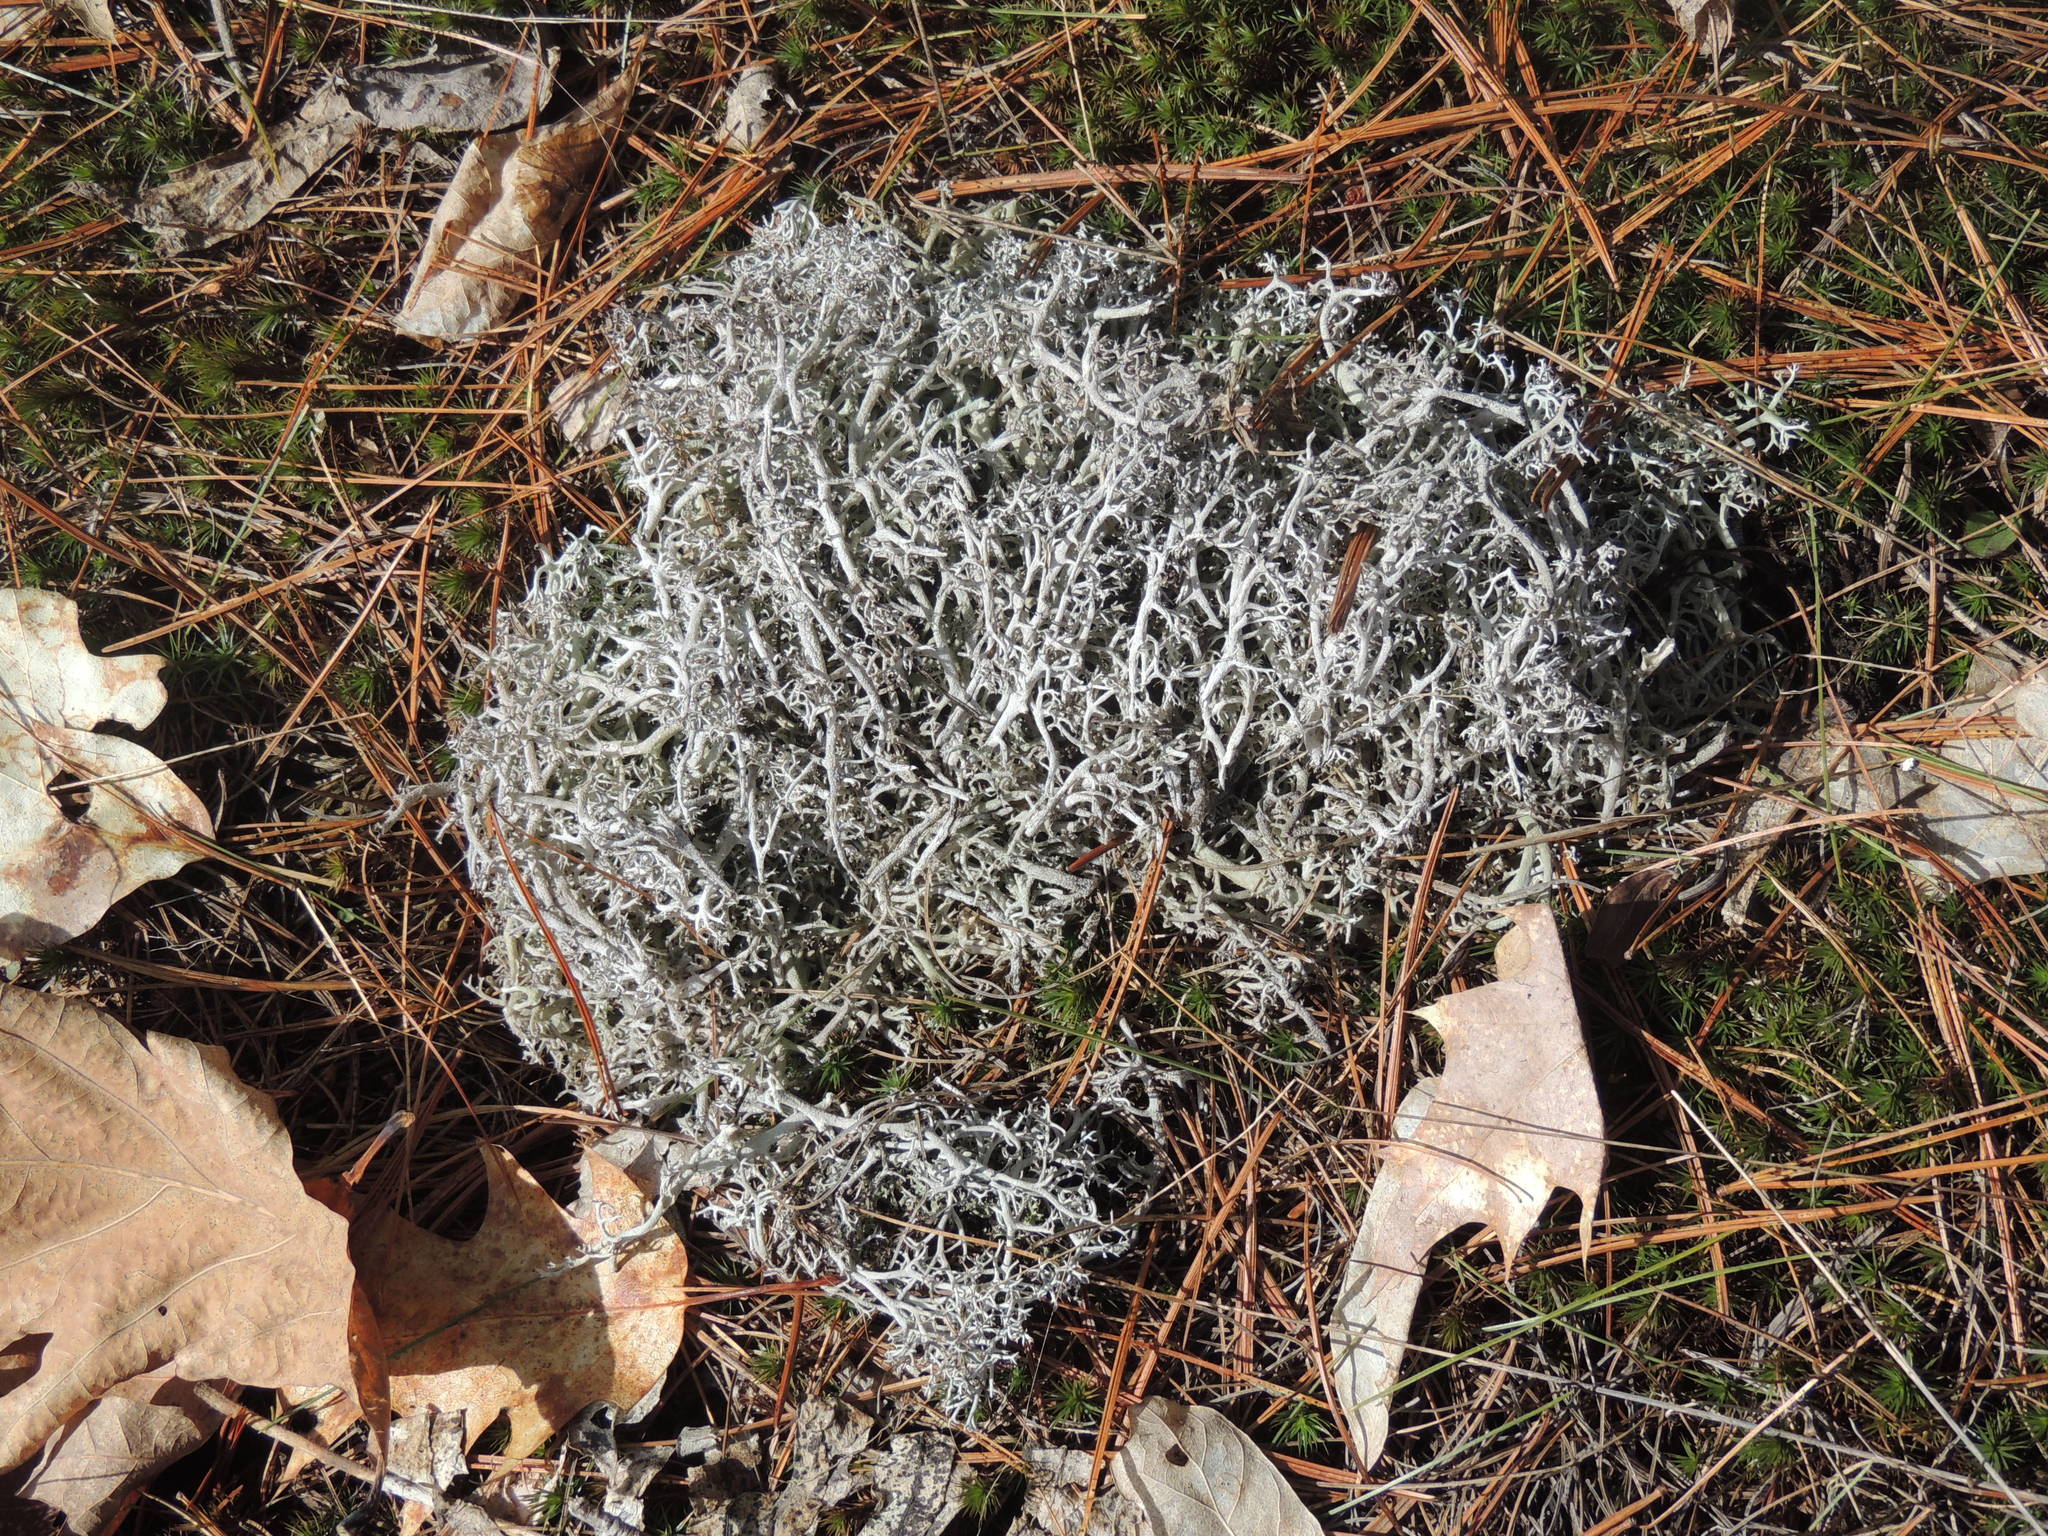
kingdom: Fungi
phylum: Ascomycota
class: Lecanoromycetes
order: Lecanorales
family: Cladoniaceae
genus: Cladonia
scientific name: Cladonia rangiferina
